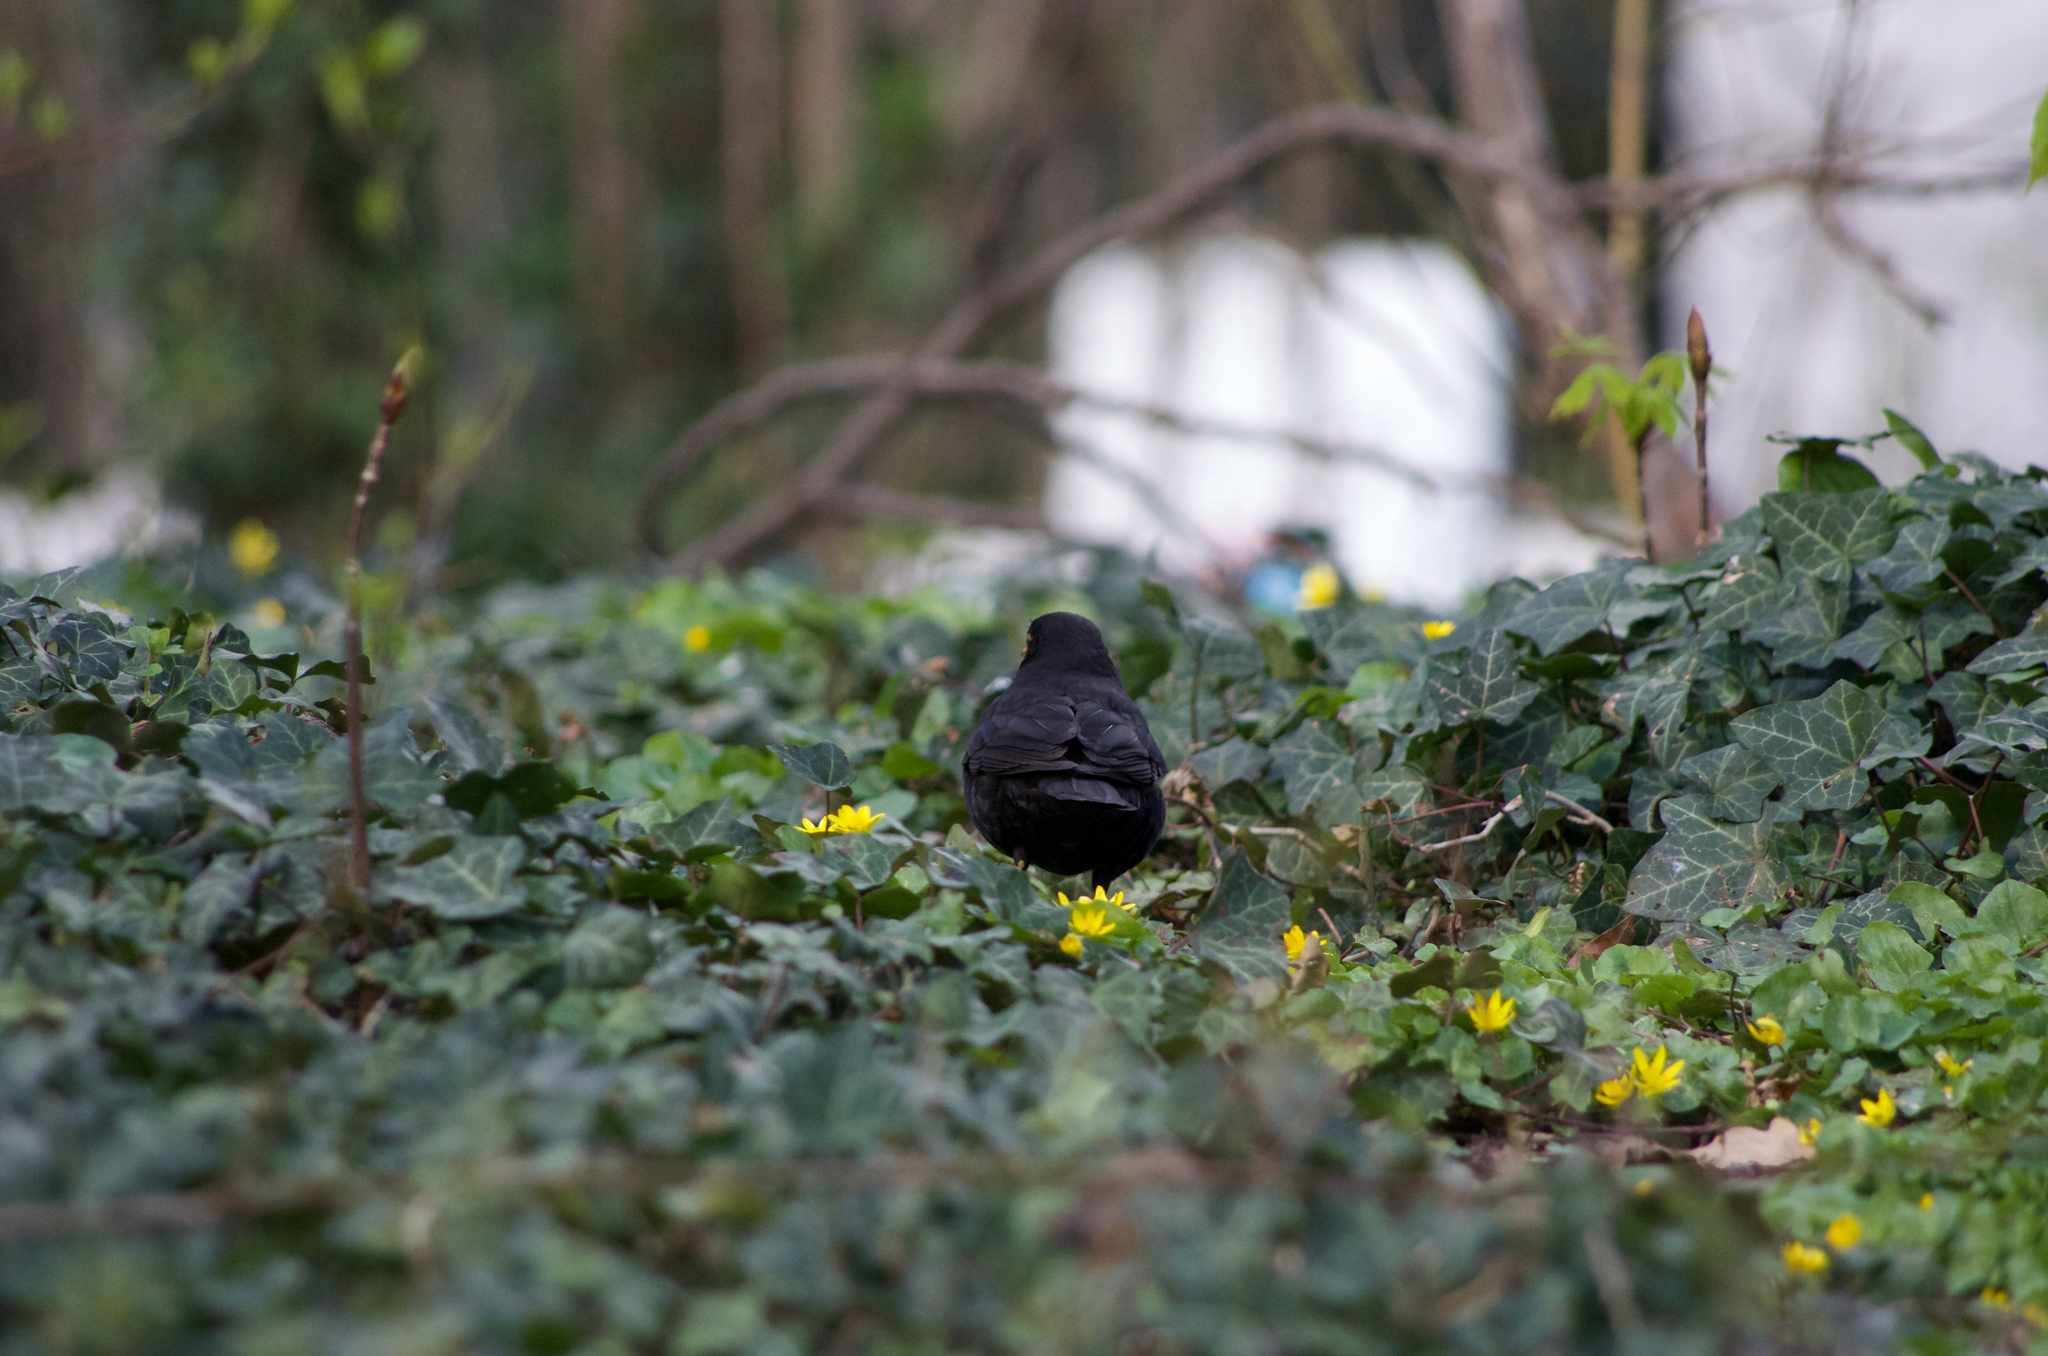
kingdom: Animalia
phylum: Chordata
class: Aves
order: Passeriformes
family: Turdidae
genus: Turdus
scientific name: Turdus merula
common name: Common blackbird
